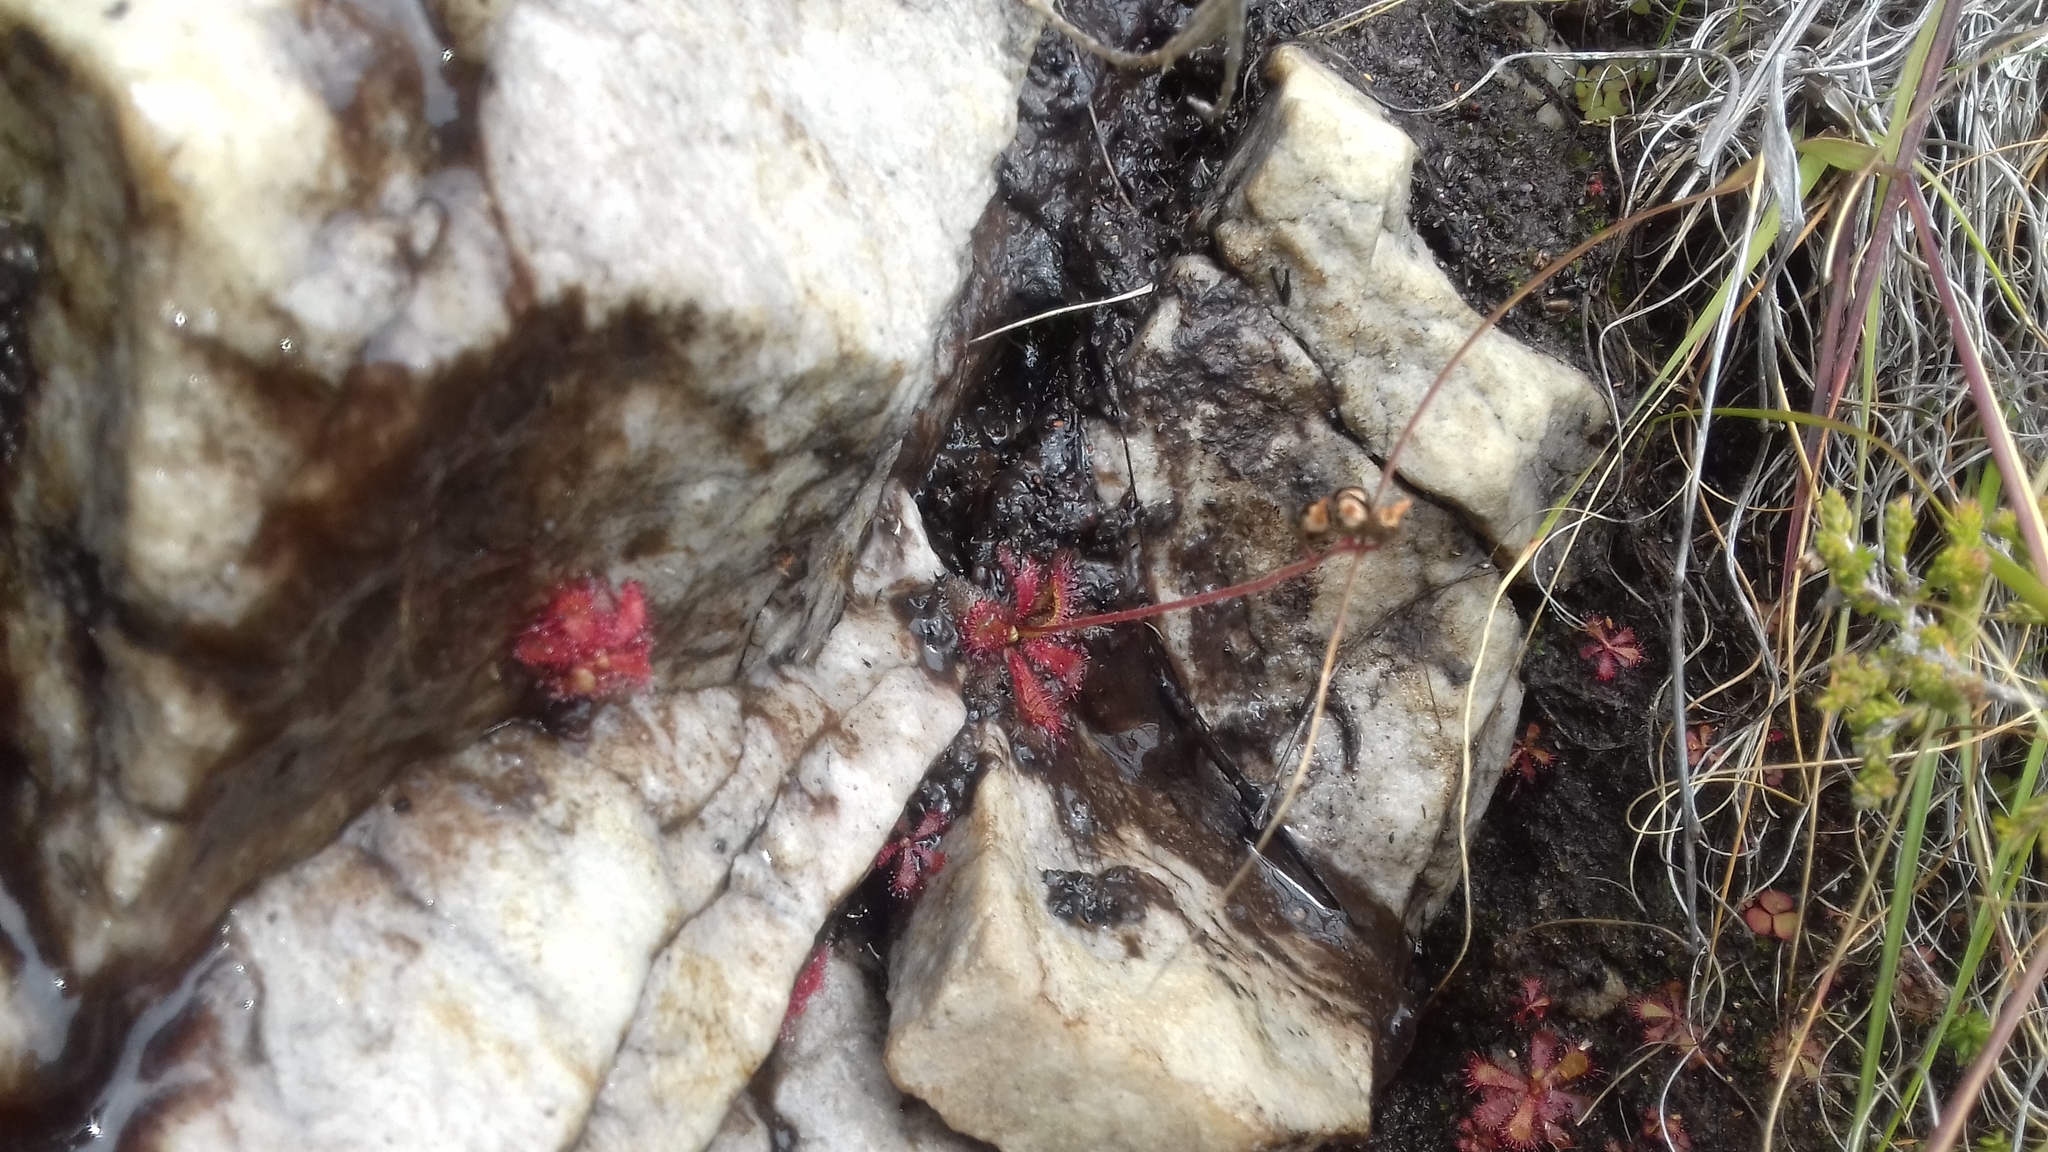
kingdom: Plantae
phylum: Tracheophyta
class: Magnoliopsida
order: Caryophyllales
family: Droseraceae
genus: Drosera
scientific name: Drosera trinervia
